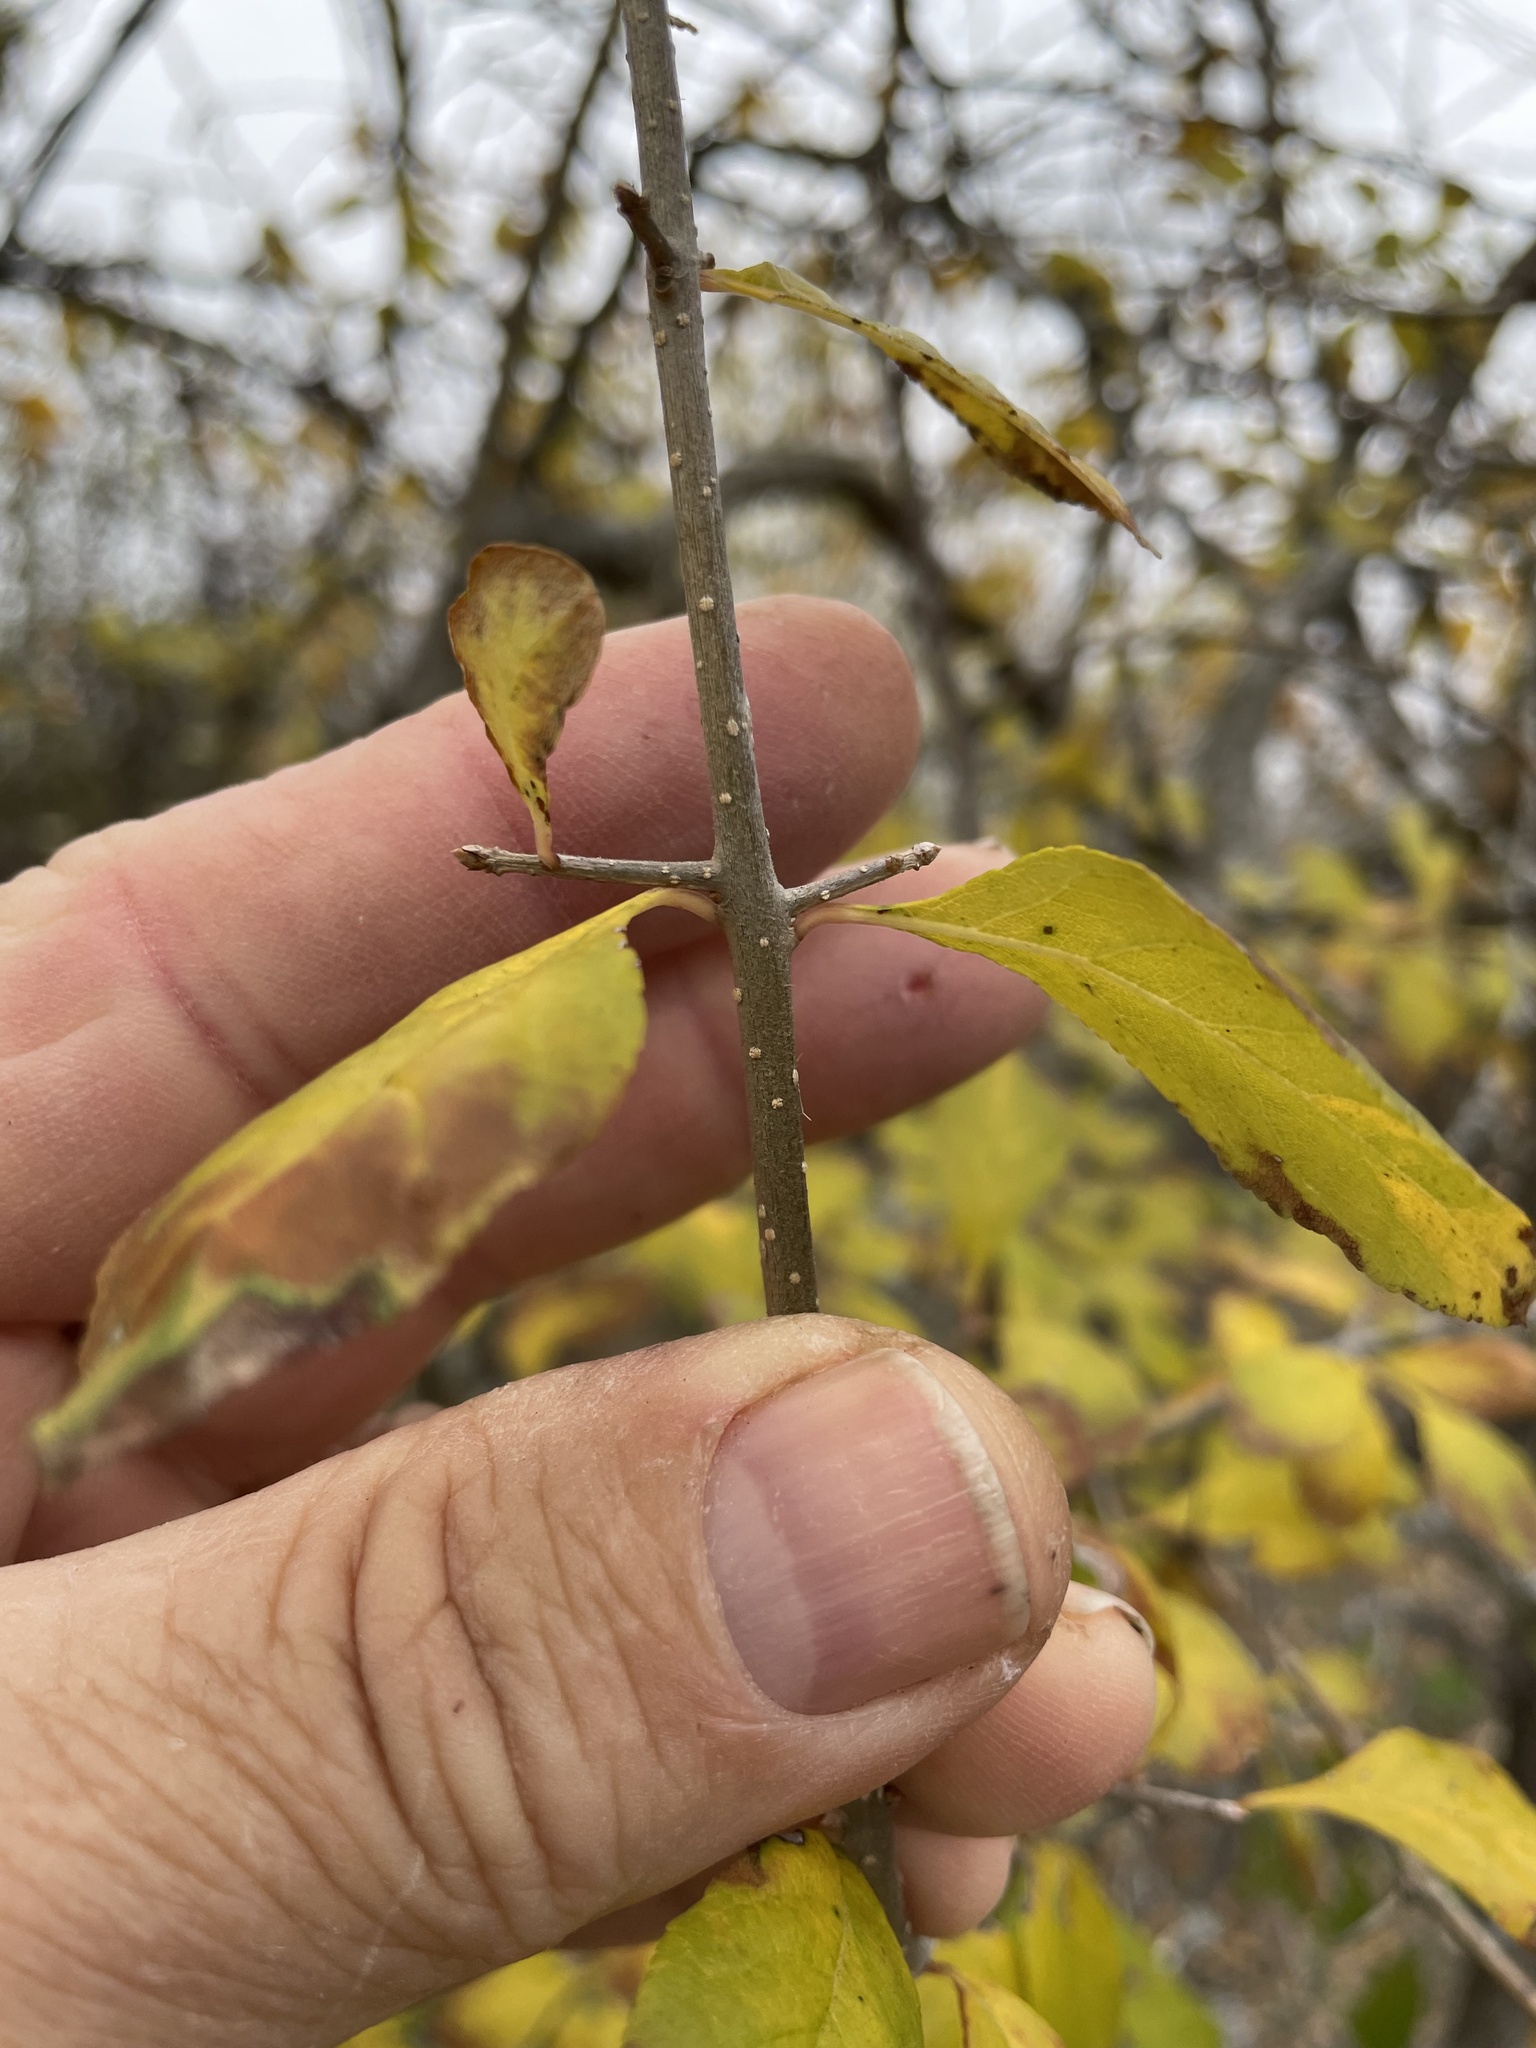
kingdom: Plantae
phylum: Tracheophyta
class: Magnoliopsida
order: Lamiales
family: Oleaceae
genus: Forestiera
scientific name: Forestiera pubescens
